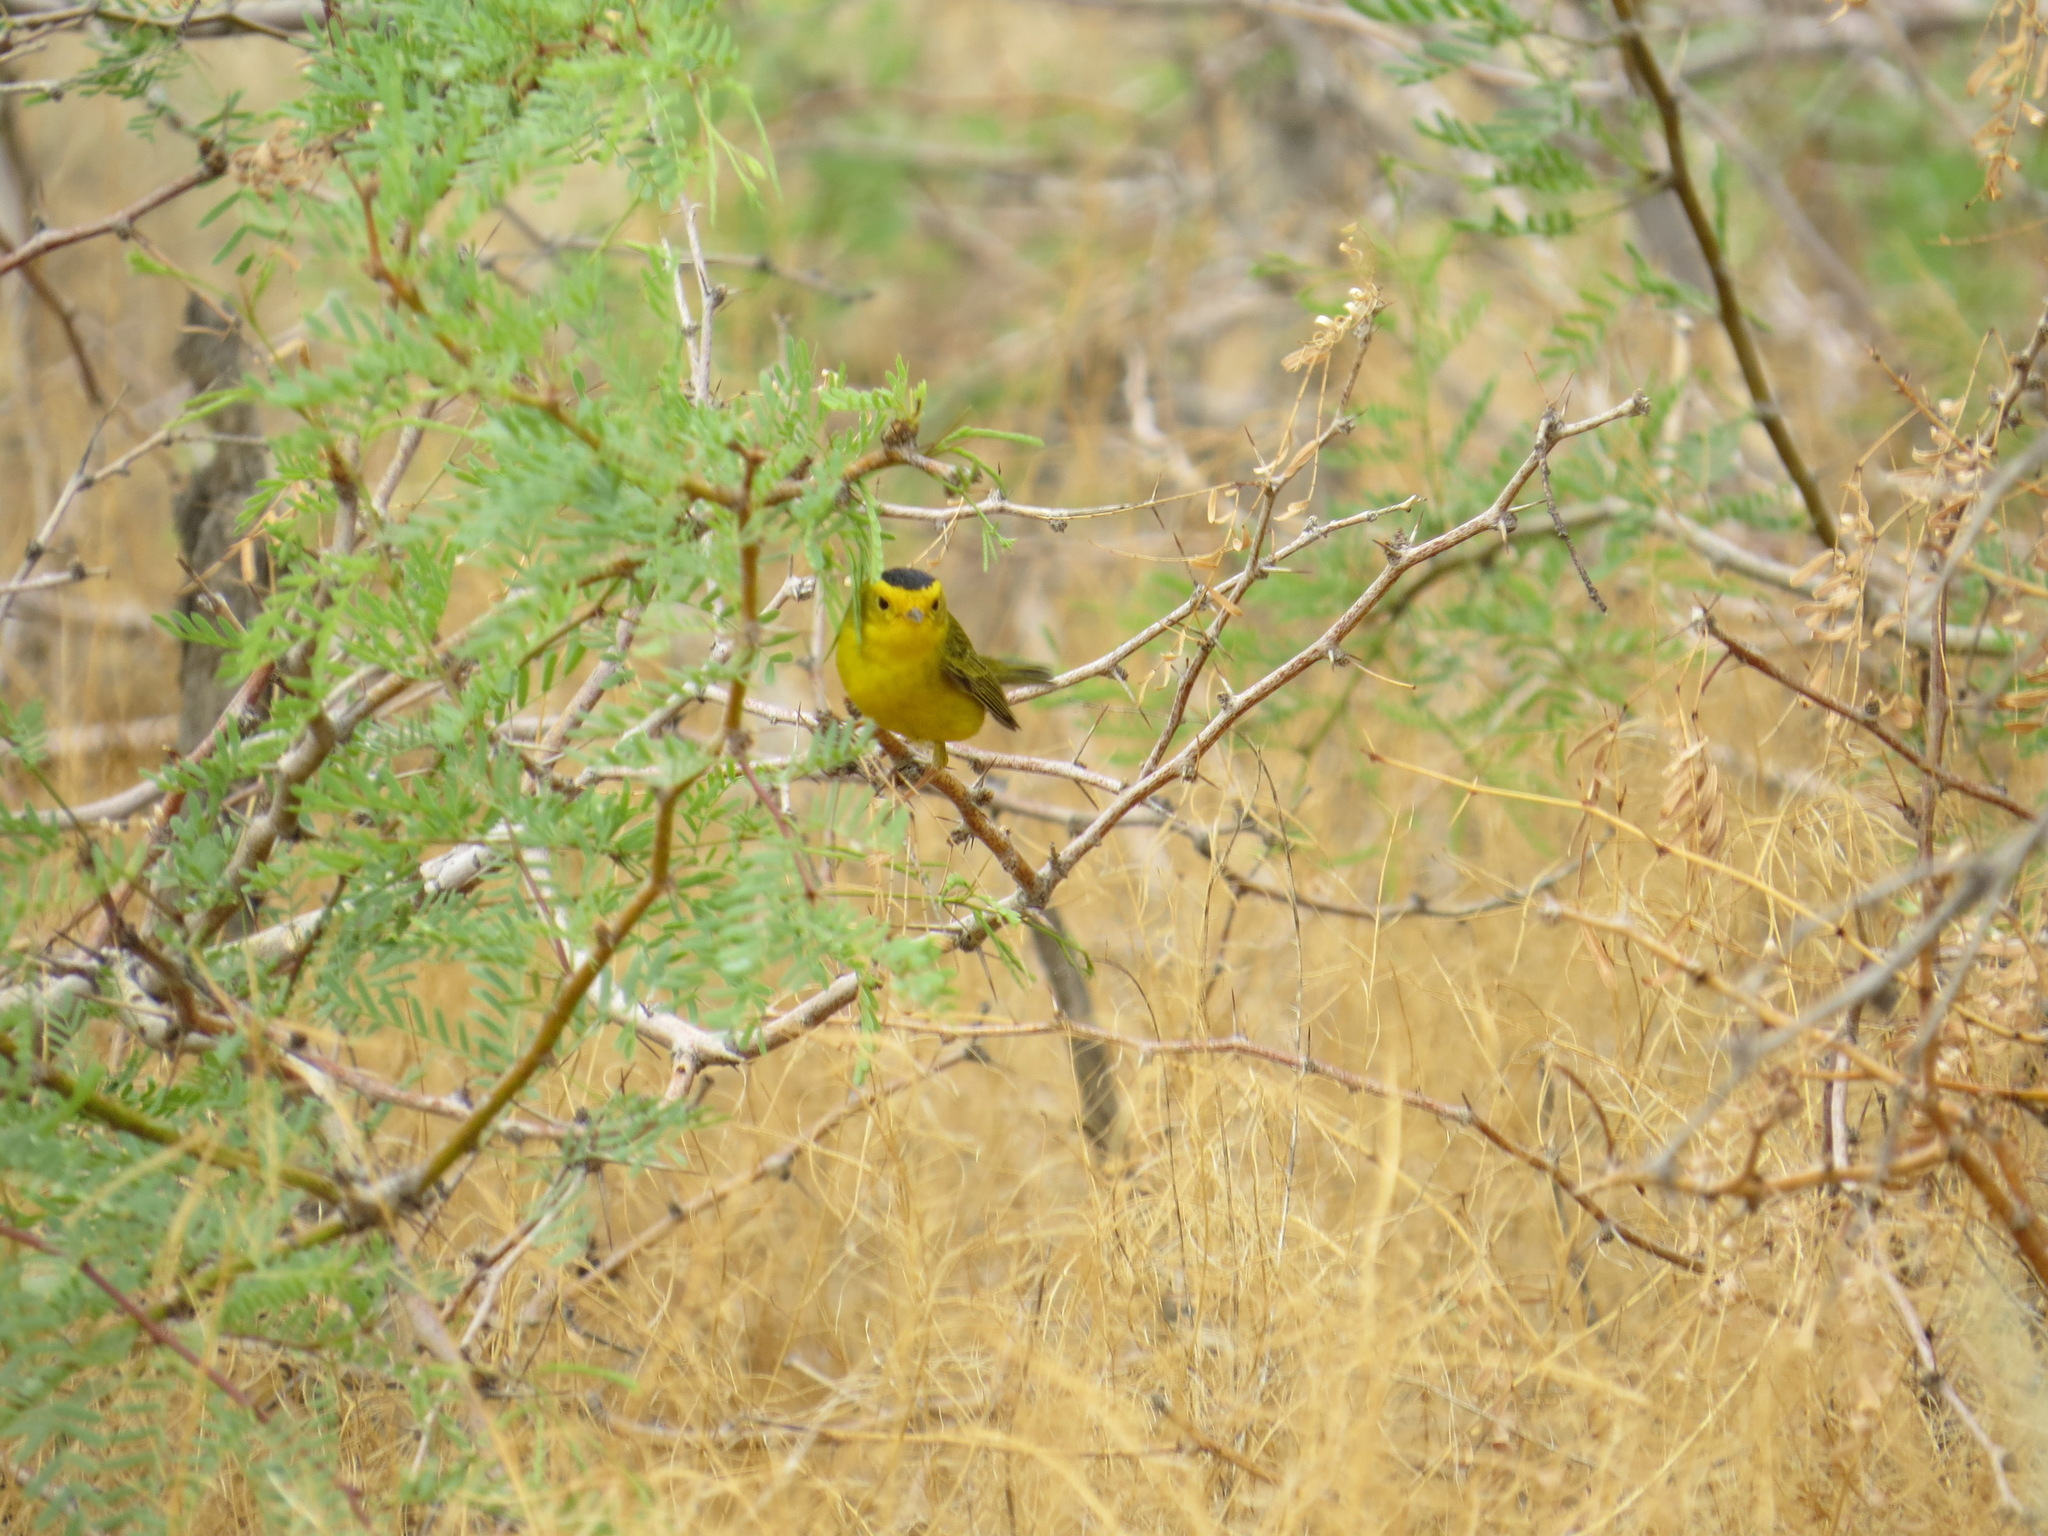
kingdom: Animalia
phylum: Chordata
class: Aves
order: Passeriformes
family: Parulidae
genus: Cardellina
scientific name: Cardellina pusilla
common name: Wilson's warbler
